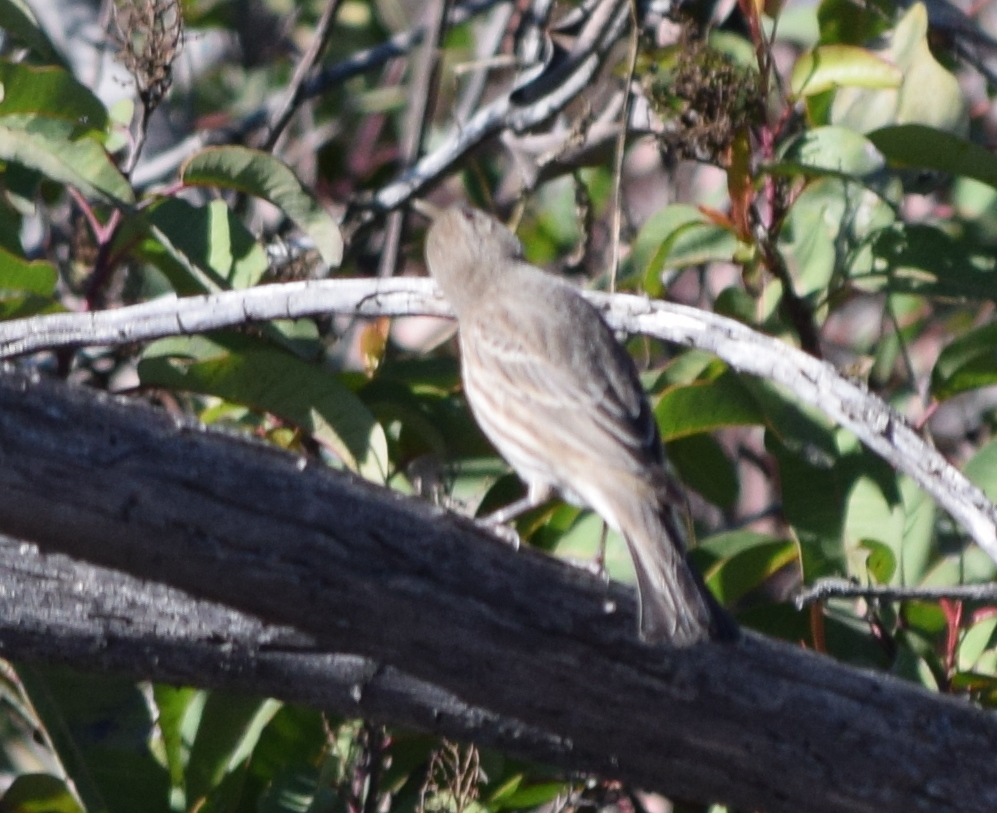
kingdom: Animalia
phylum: Chordata
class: Aves
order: Passeriformes
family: Fringillidae
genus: Haemorhous
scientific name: Haemorhous mexicanus
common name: House finch
